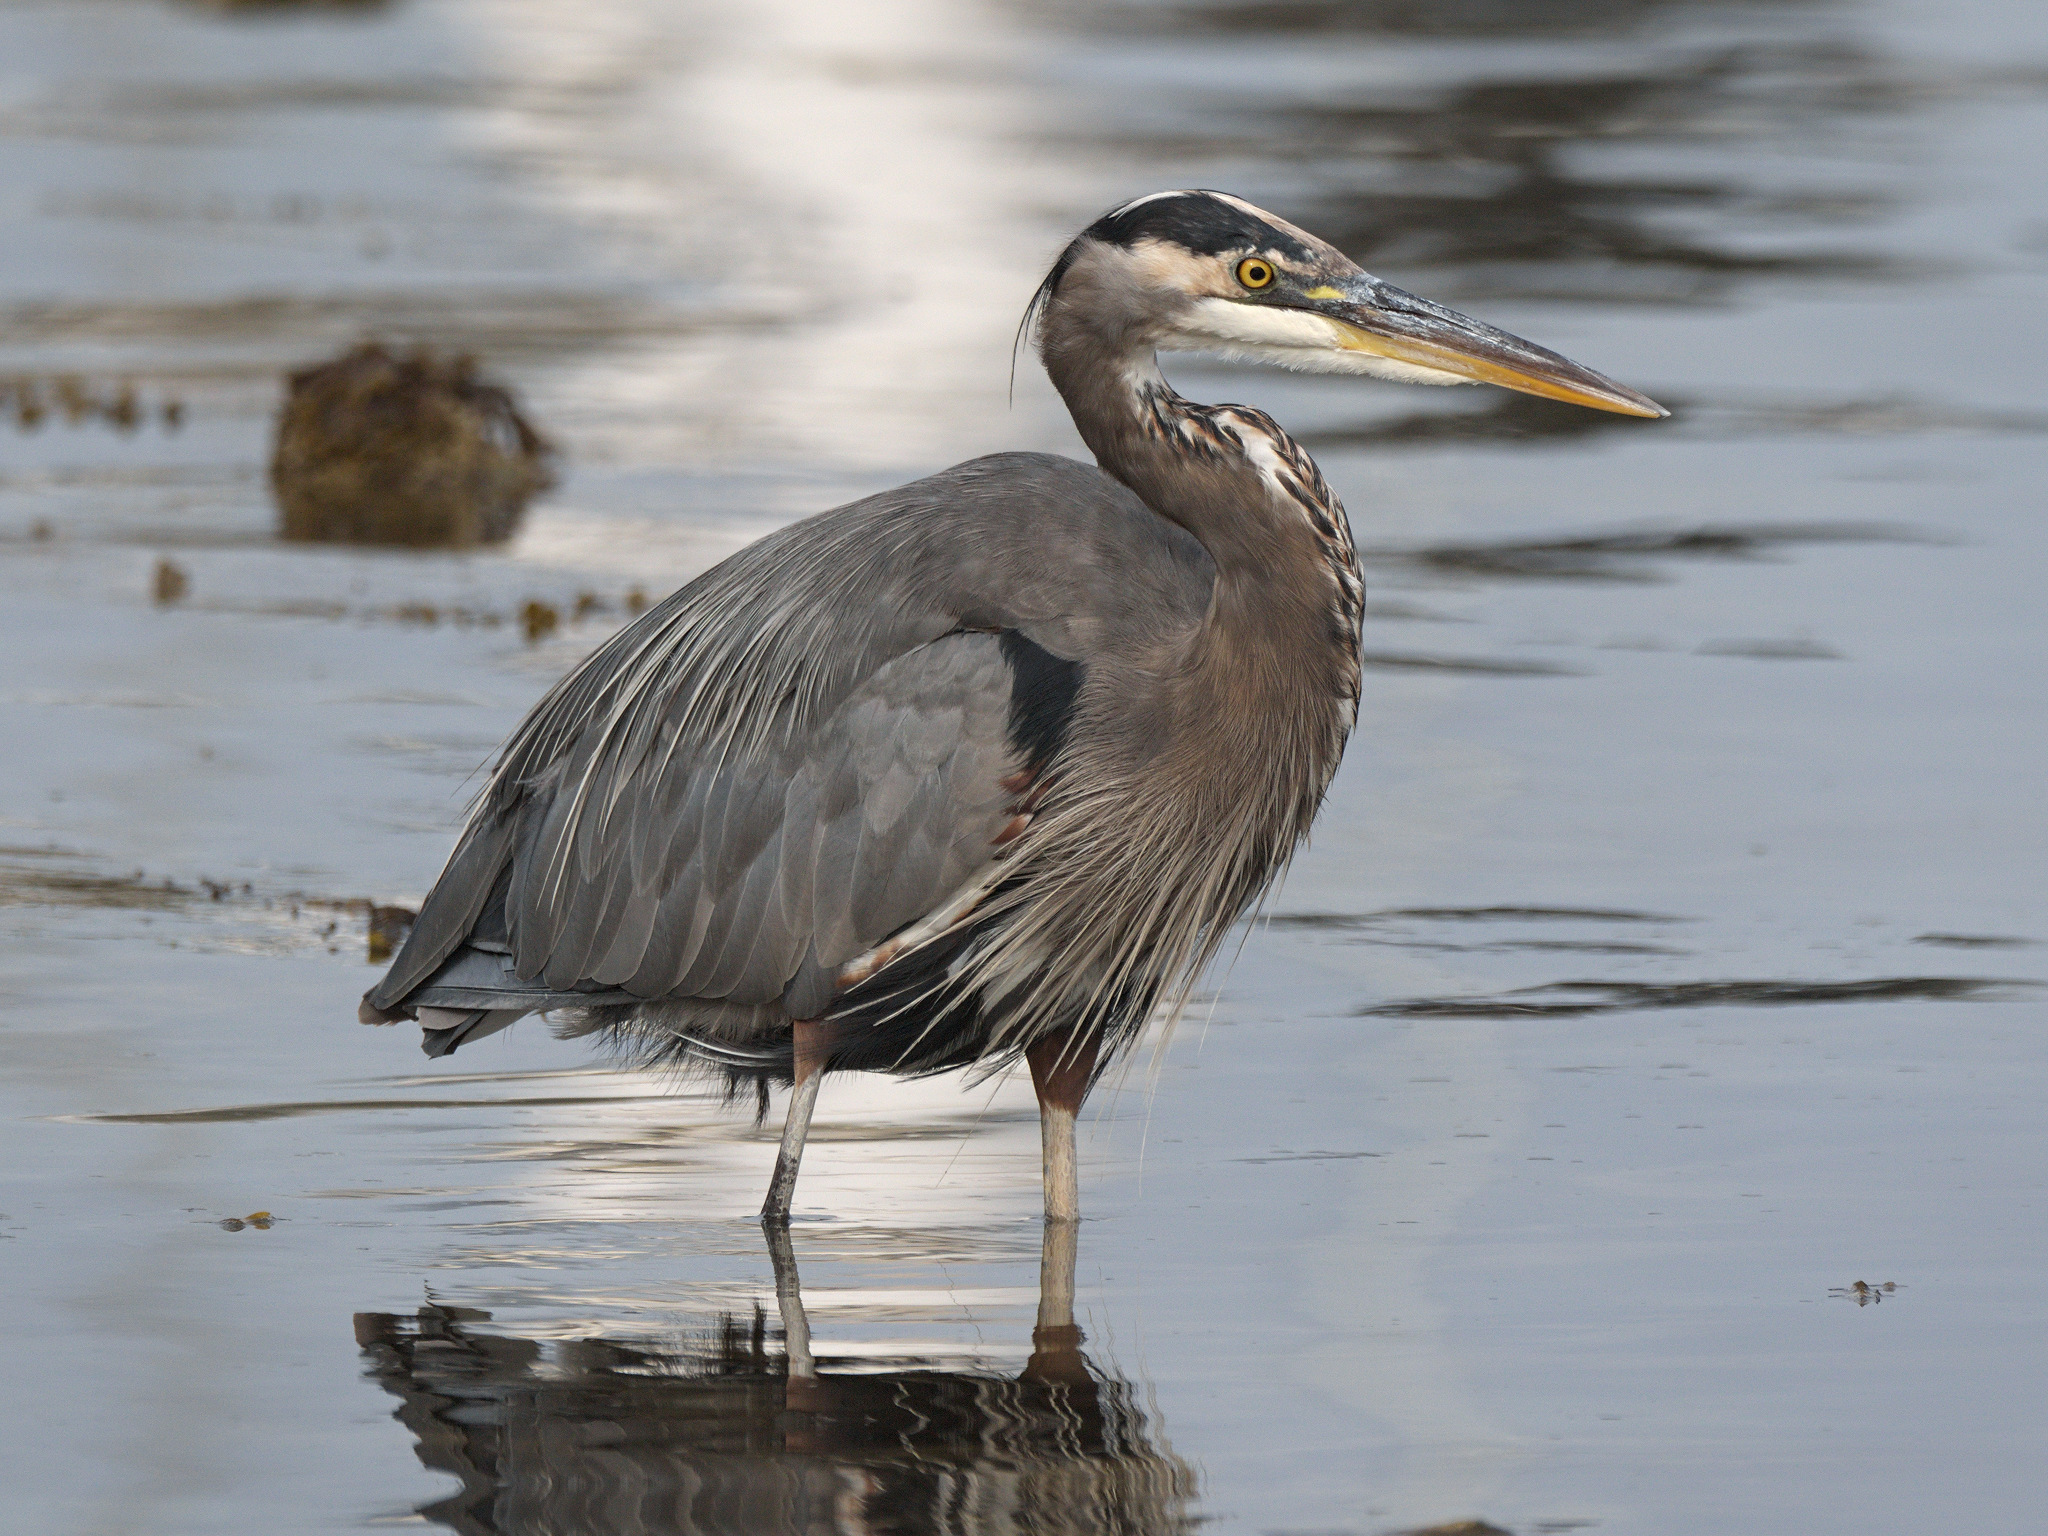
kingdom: Animalia
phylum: Chordata
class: Aves
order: Pelecaniformes
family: Ardeidae
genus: Ardea
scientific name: Ardea herodias
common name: Great blue heron
